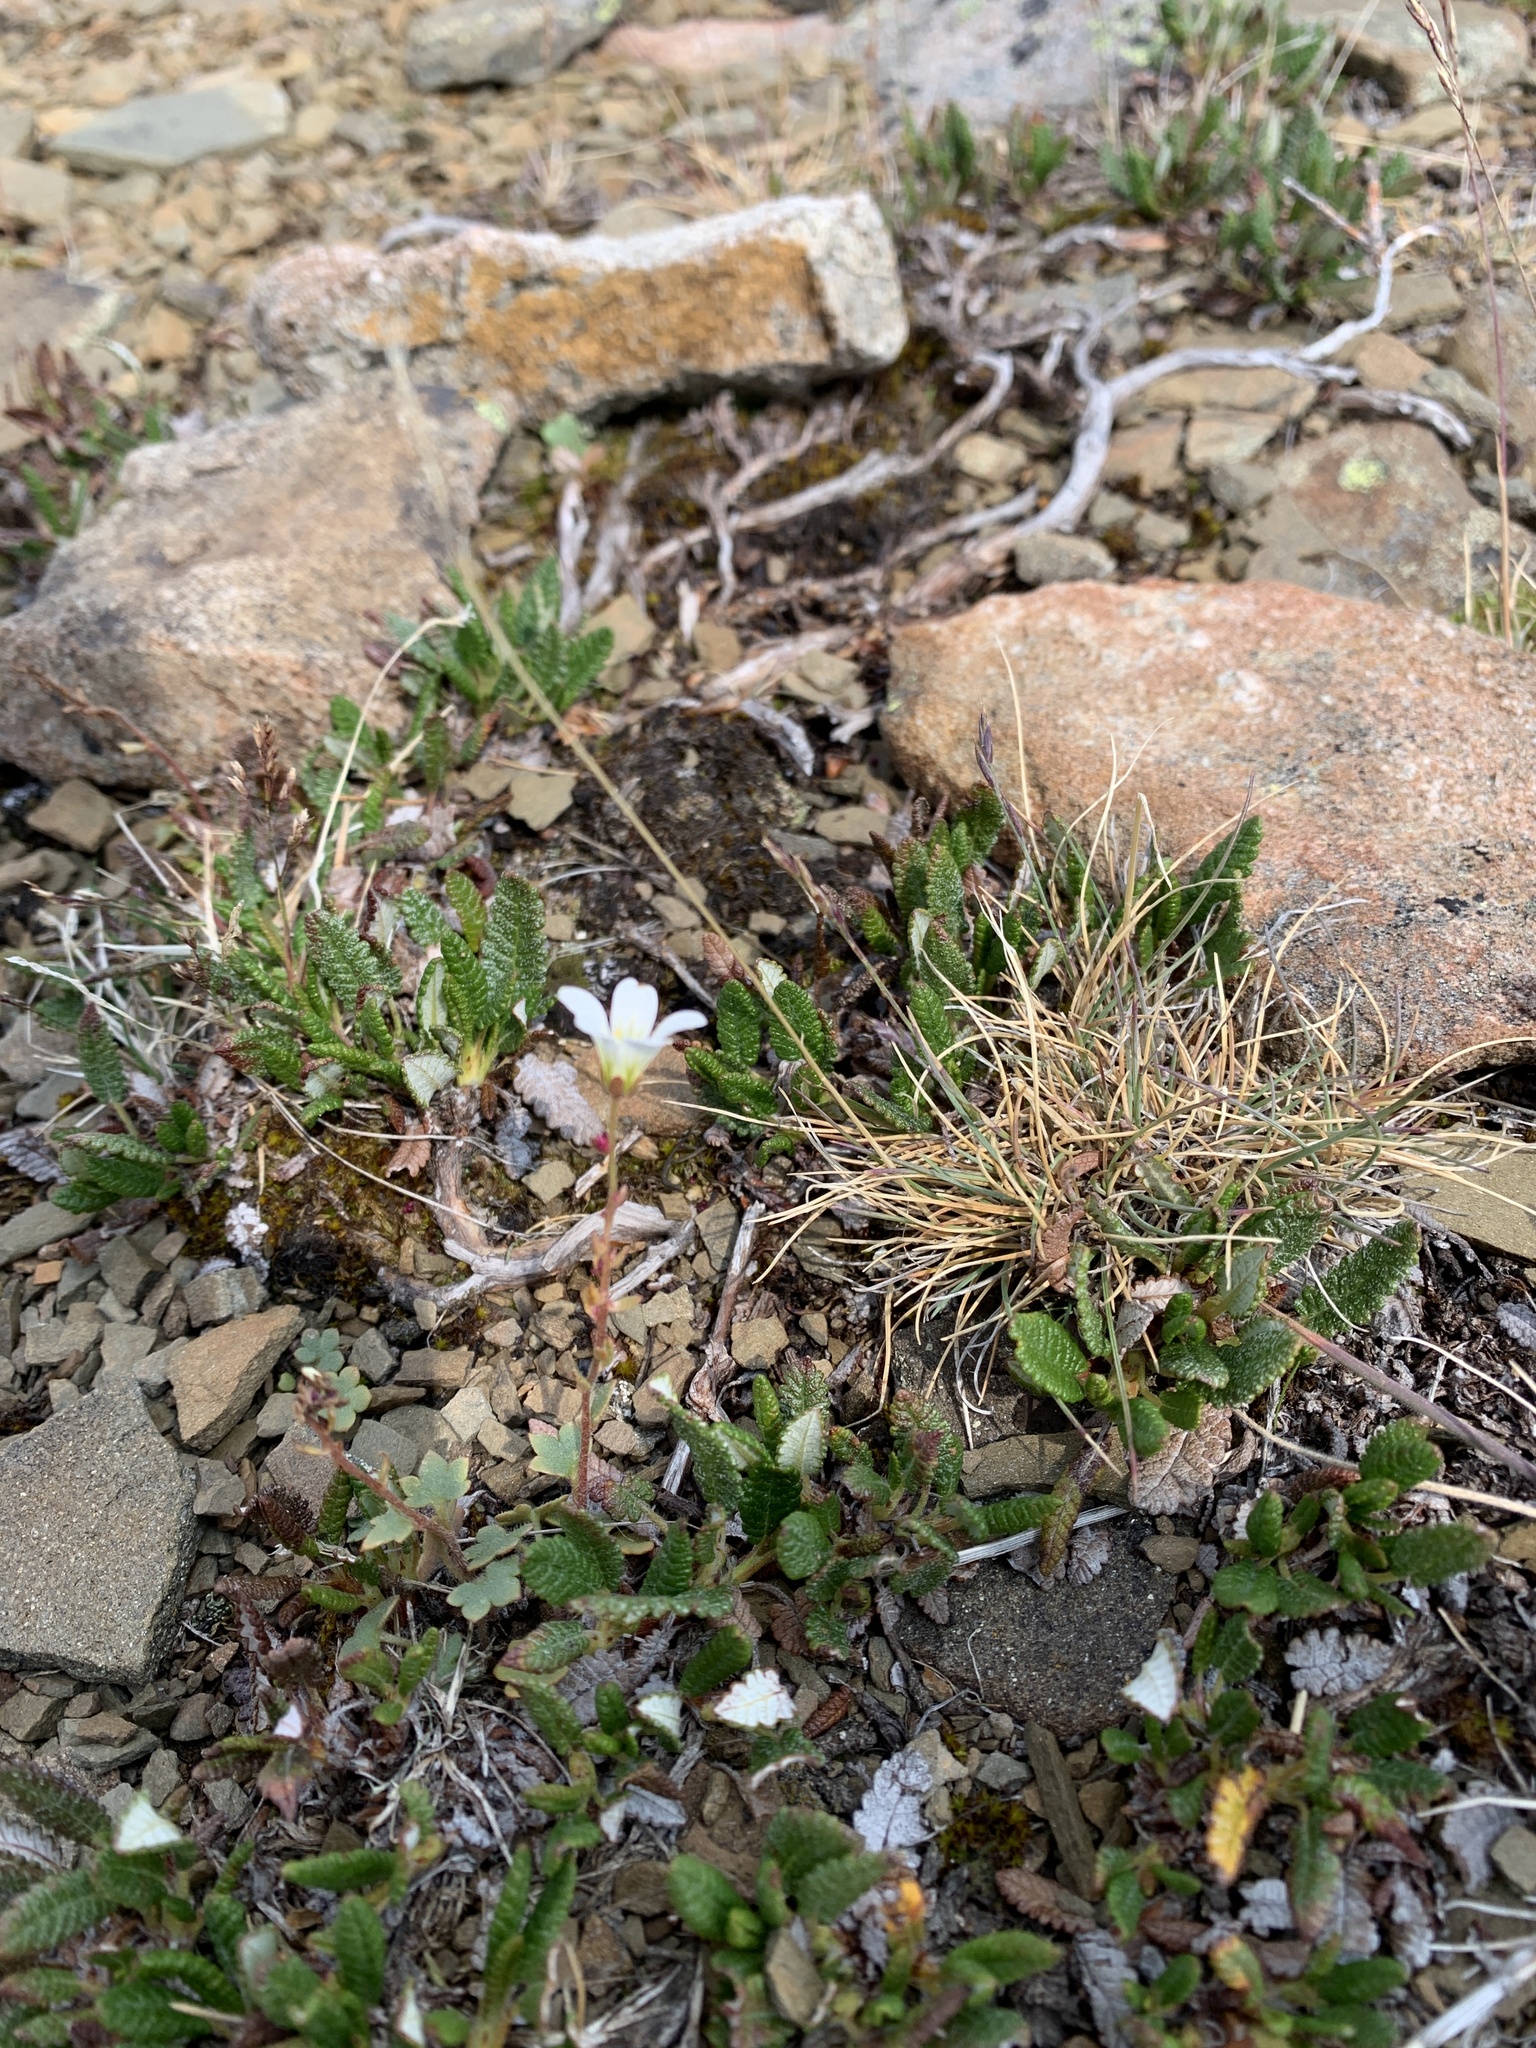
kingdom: Plantae
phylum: Tracheophyta
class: Magnoliopsida
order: Saxifragales
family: Saxifragaceae
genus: Saxifraga
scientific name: Saxifraga cernua
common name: Drooping saxifrage
